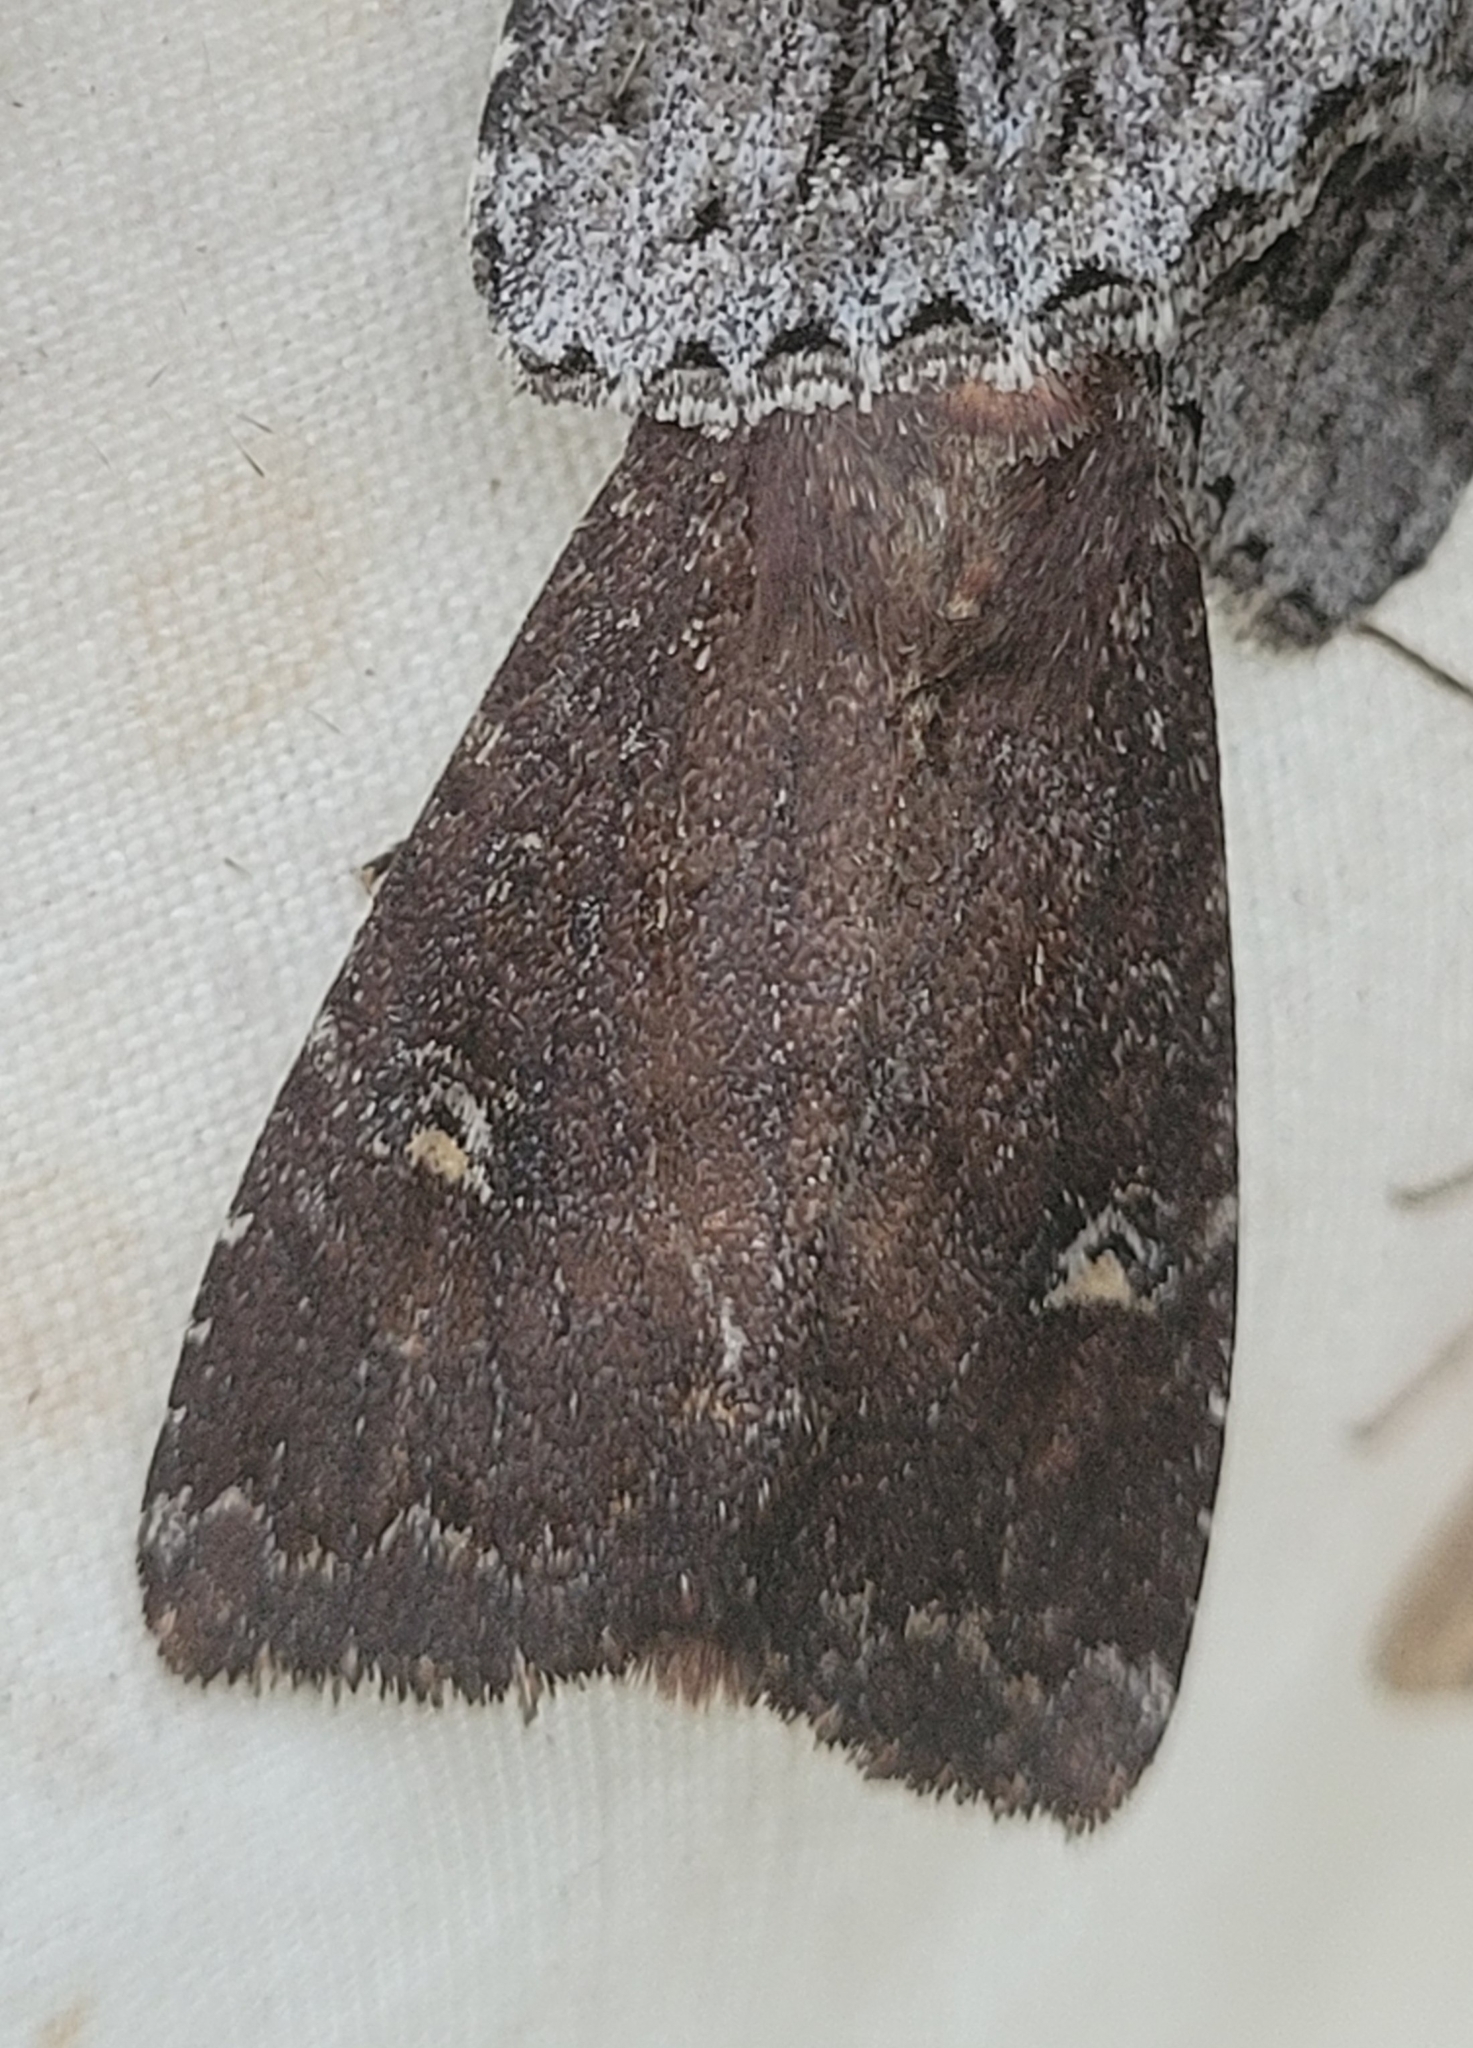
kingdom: Animalia
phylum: Arthropoda
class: Insecta
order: Lepidoptera
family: Noctuidae
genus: Apamea
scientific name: Apamea cogitata
